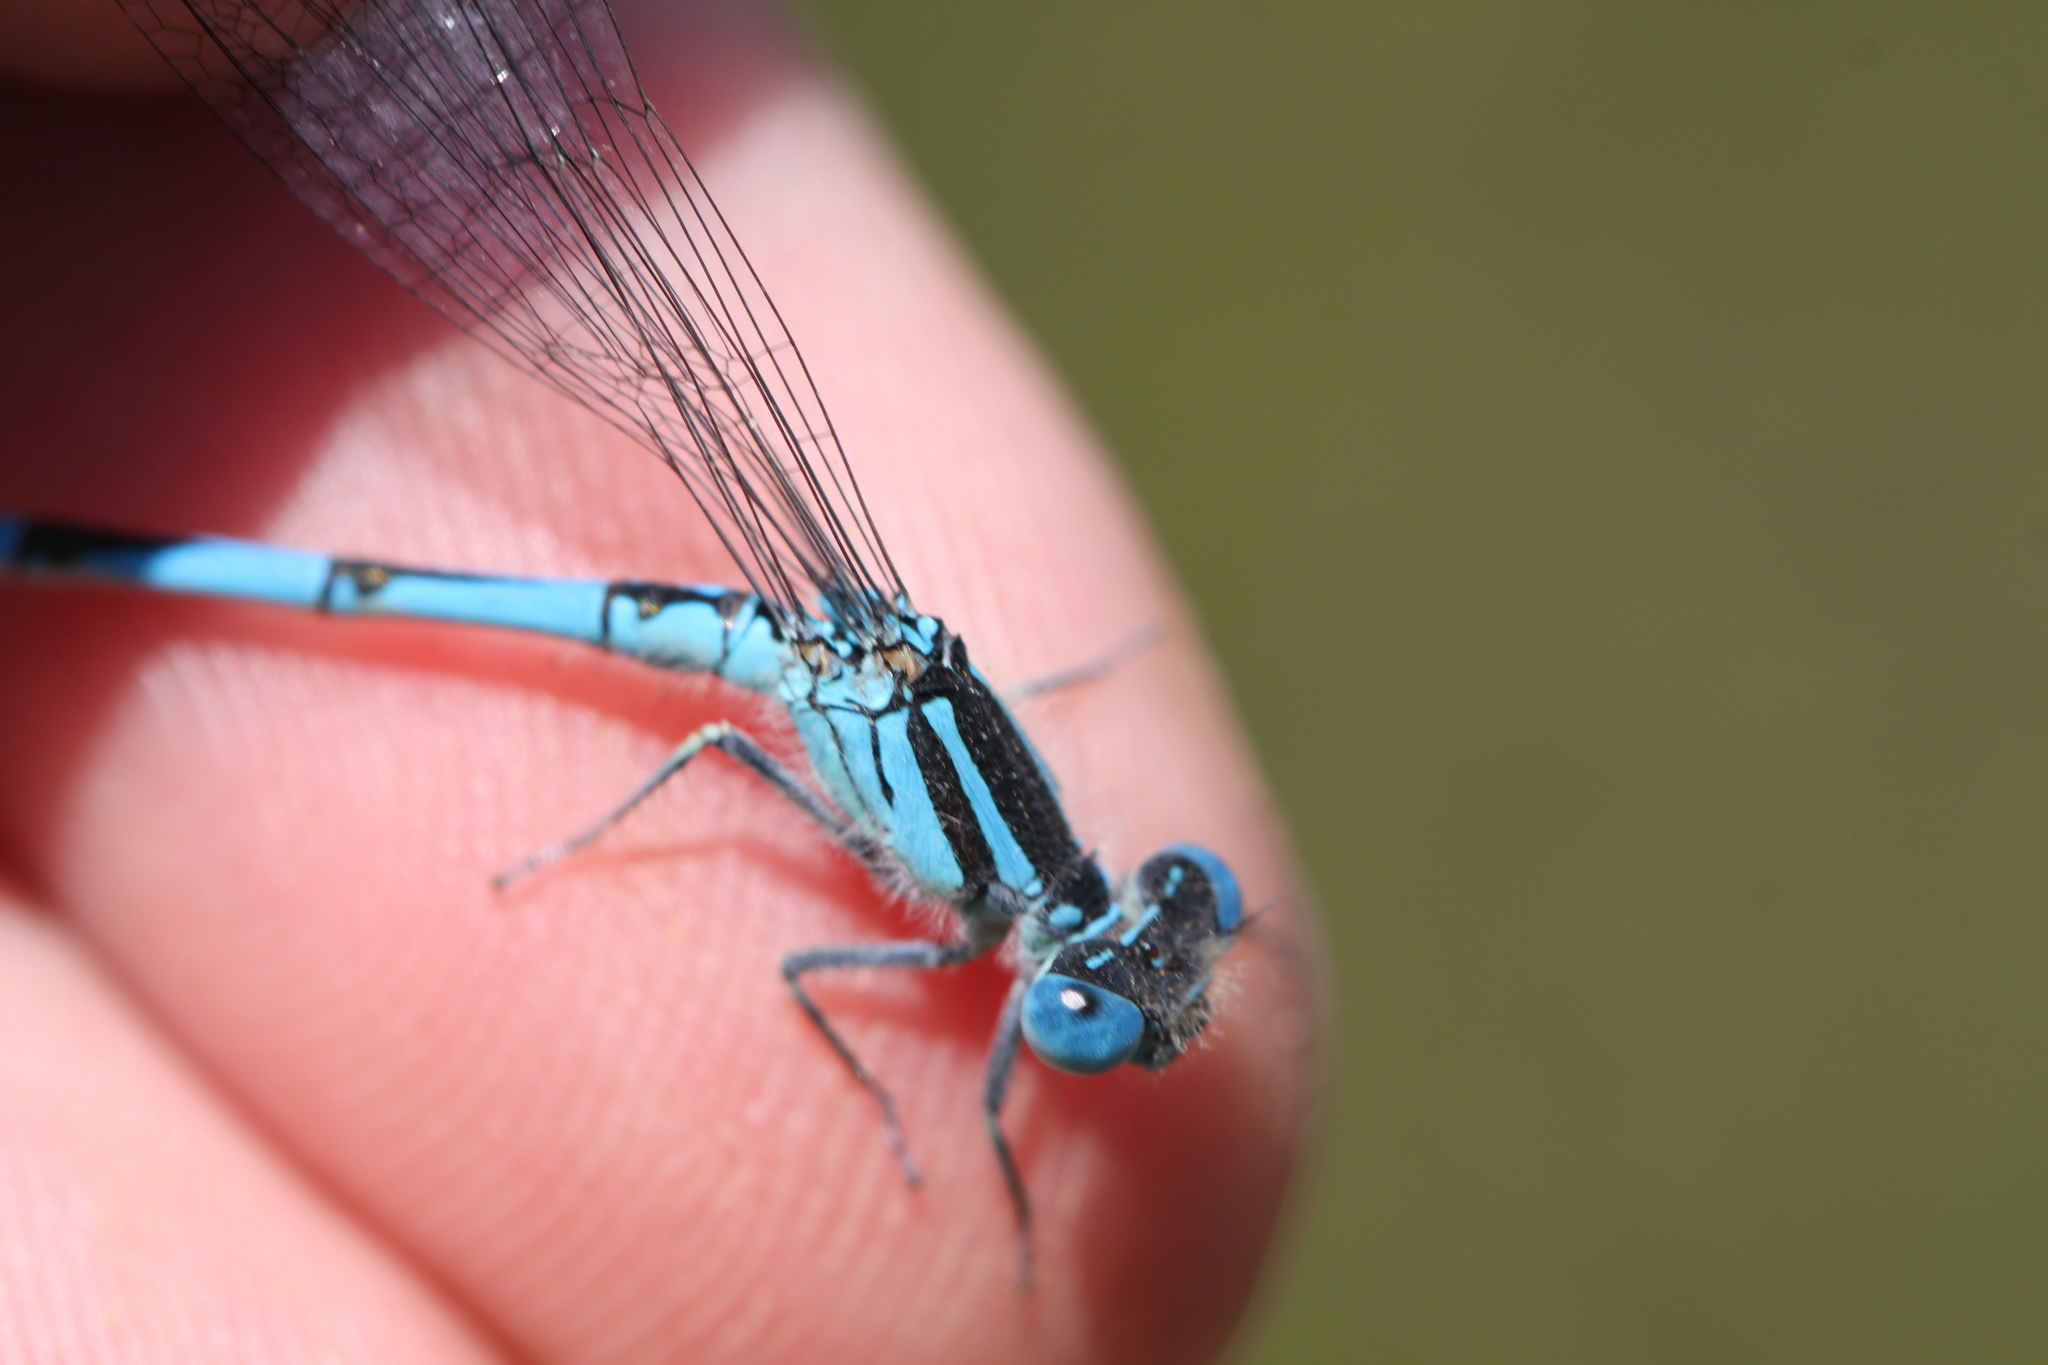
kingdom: Animalia
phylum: Arthropoda
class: Insecta
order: Odonata
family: Coenagrionidae
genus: Erythromma
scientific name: Erythromma lindenii
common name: Blue-eye
